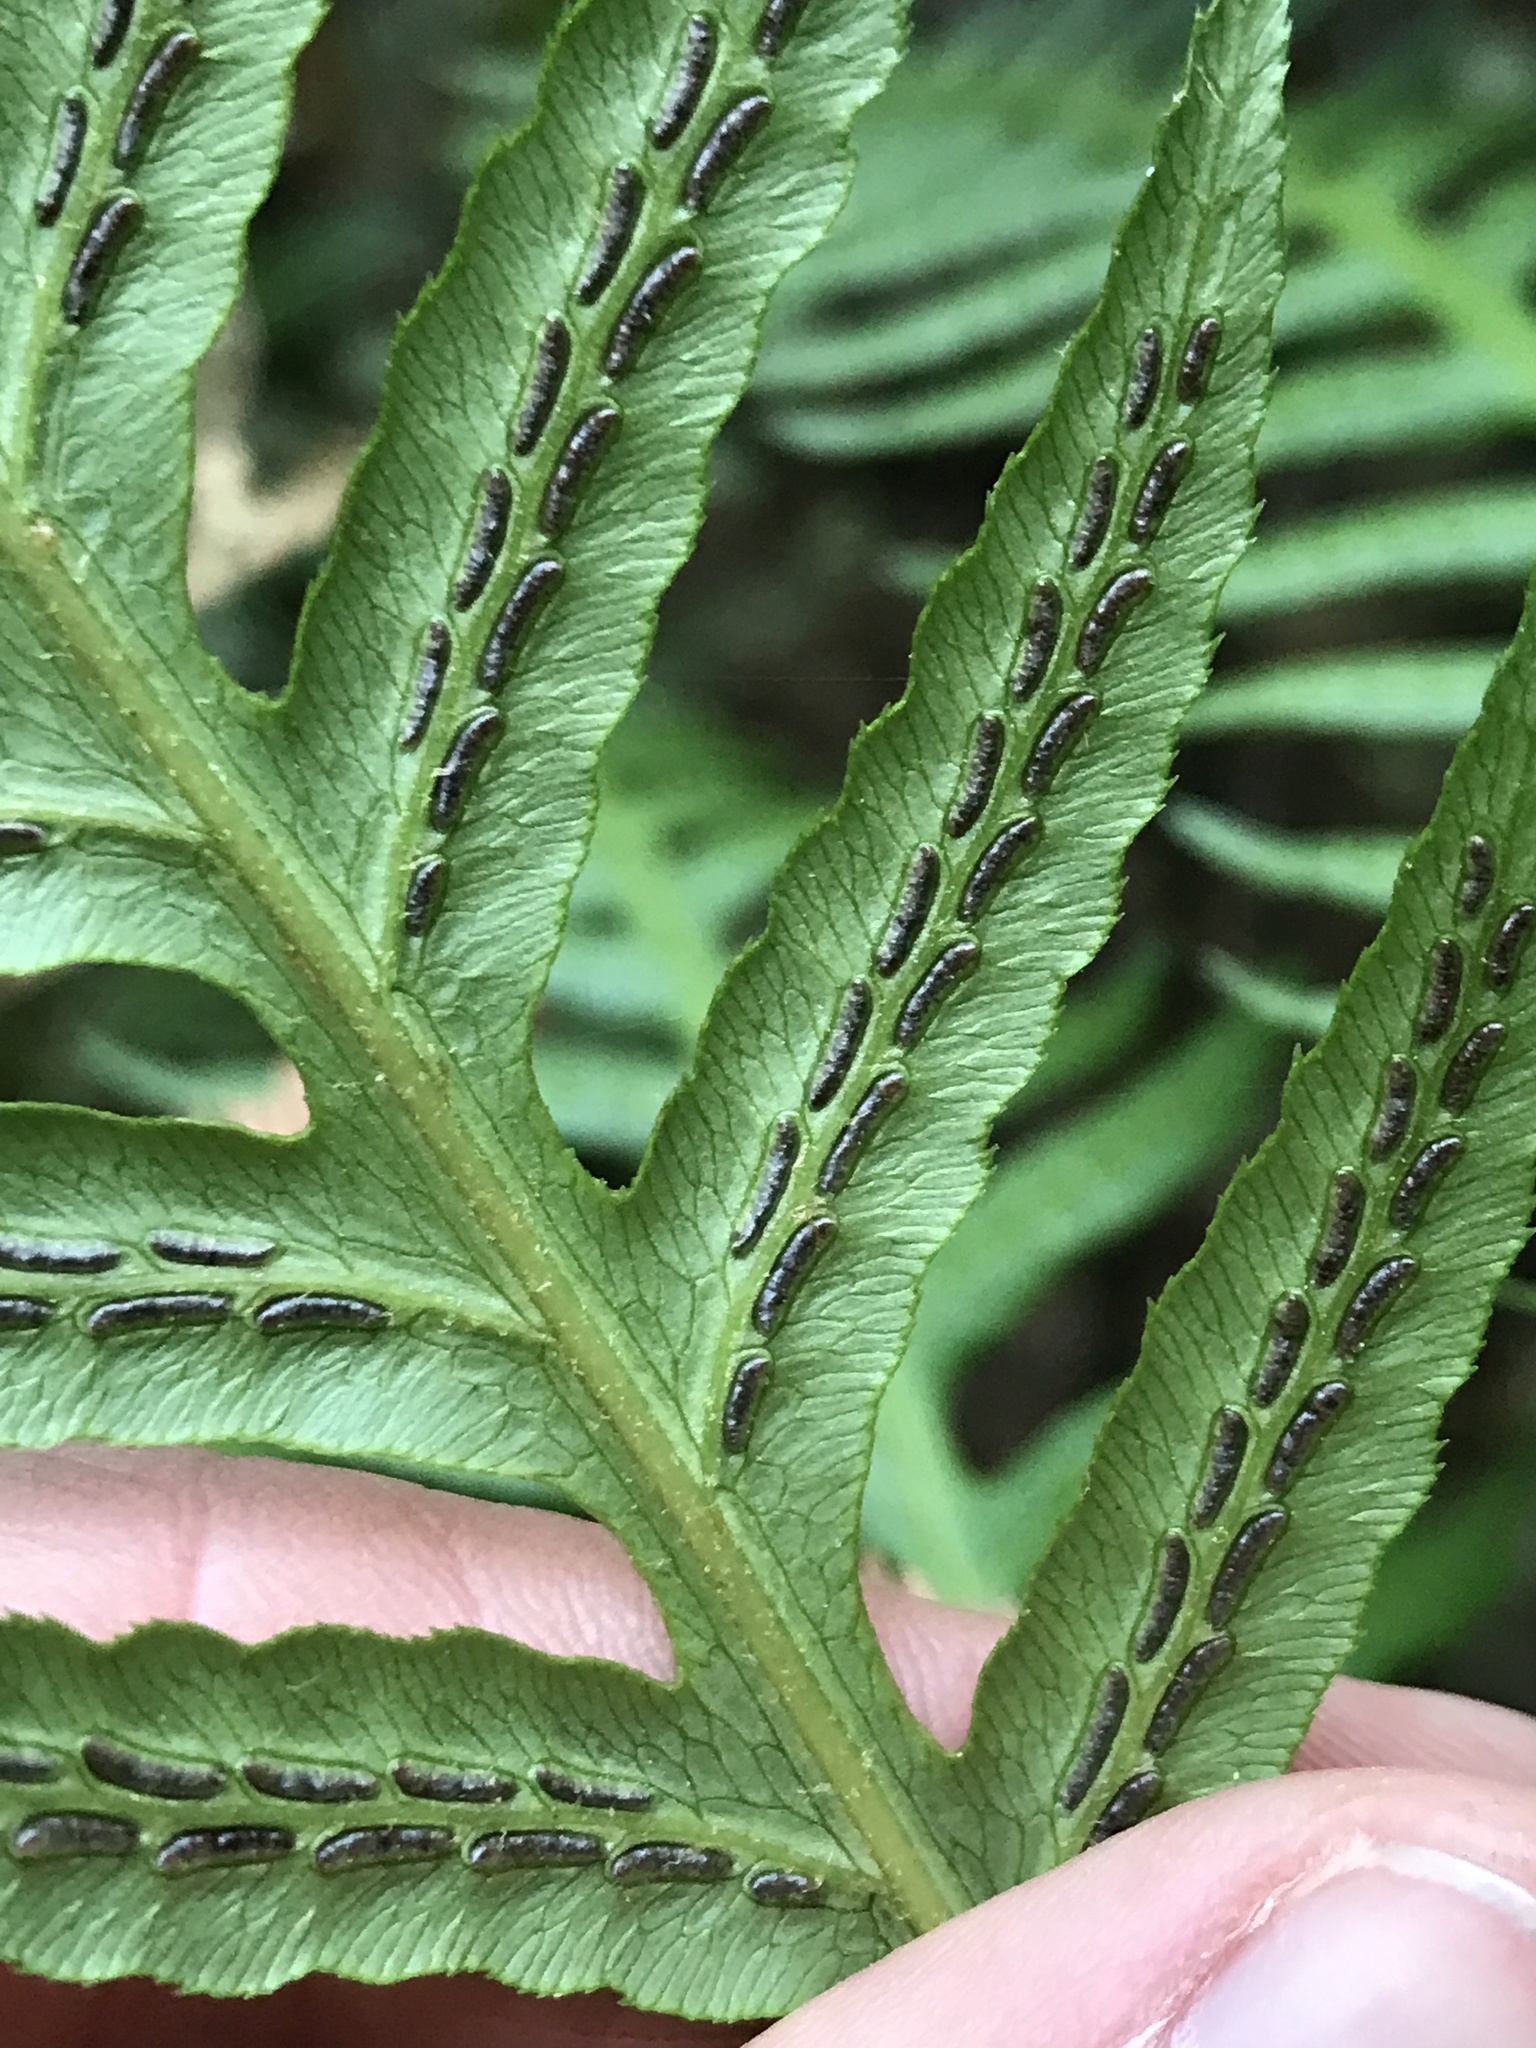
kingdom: Plantae
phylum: Tracheophyta
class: Polypodiopsida
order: Polypodiales
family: Blechnaceae
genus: Woodwardia
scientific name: Woodwardia fimbriata
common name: Giant chain fern
